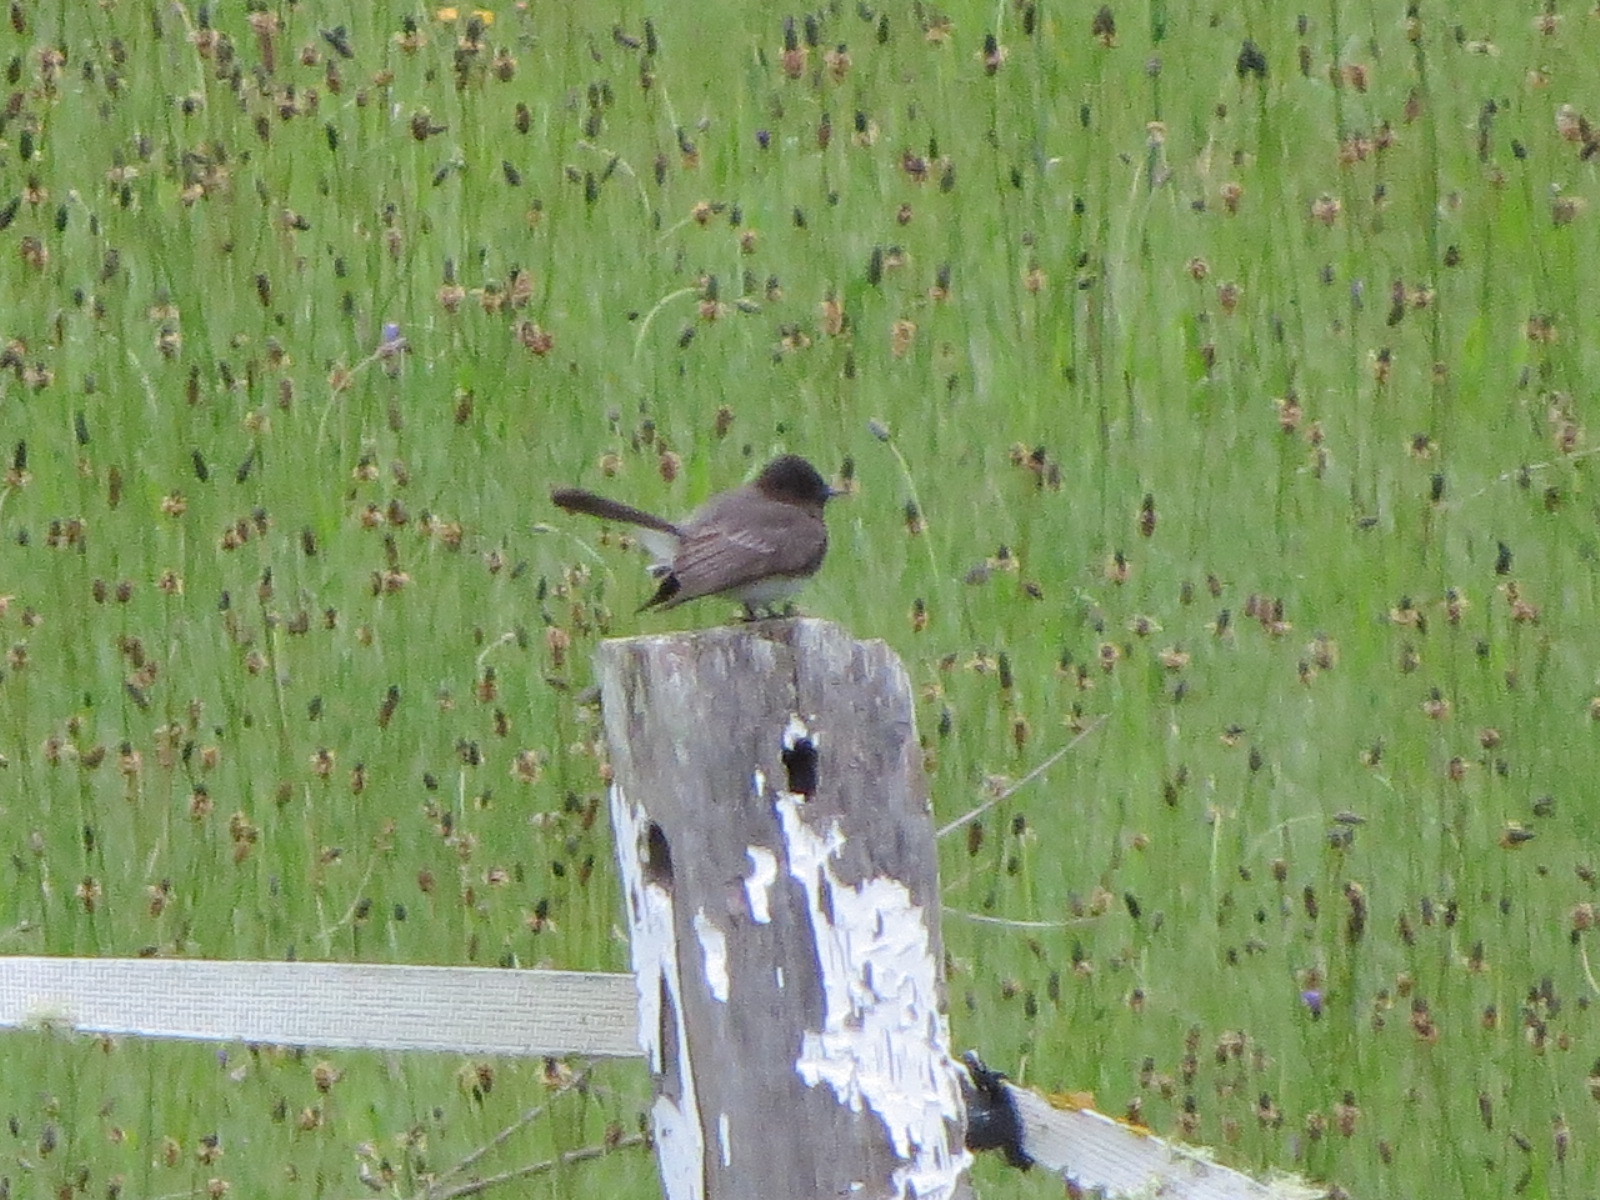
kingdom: Animalia
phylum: Chordata
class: Aves
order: Passeriformes
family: Tyrannidae
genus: Sayornis
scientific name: Sayornis nigricans
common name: Black phoebe
